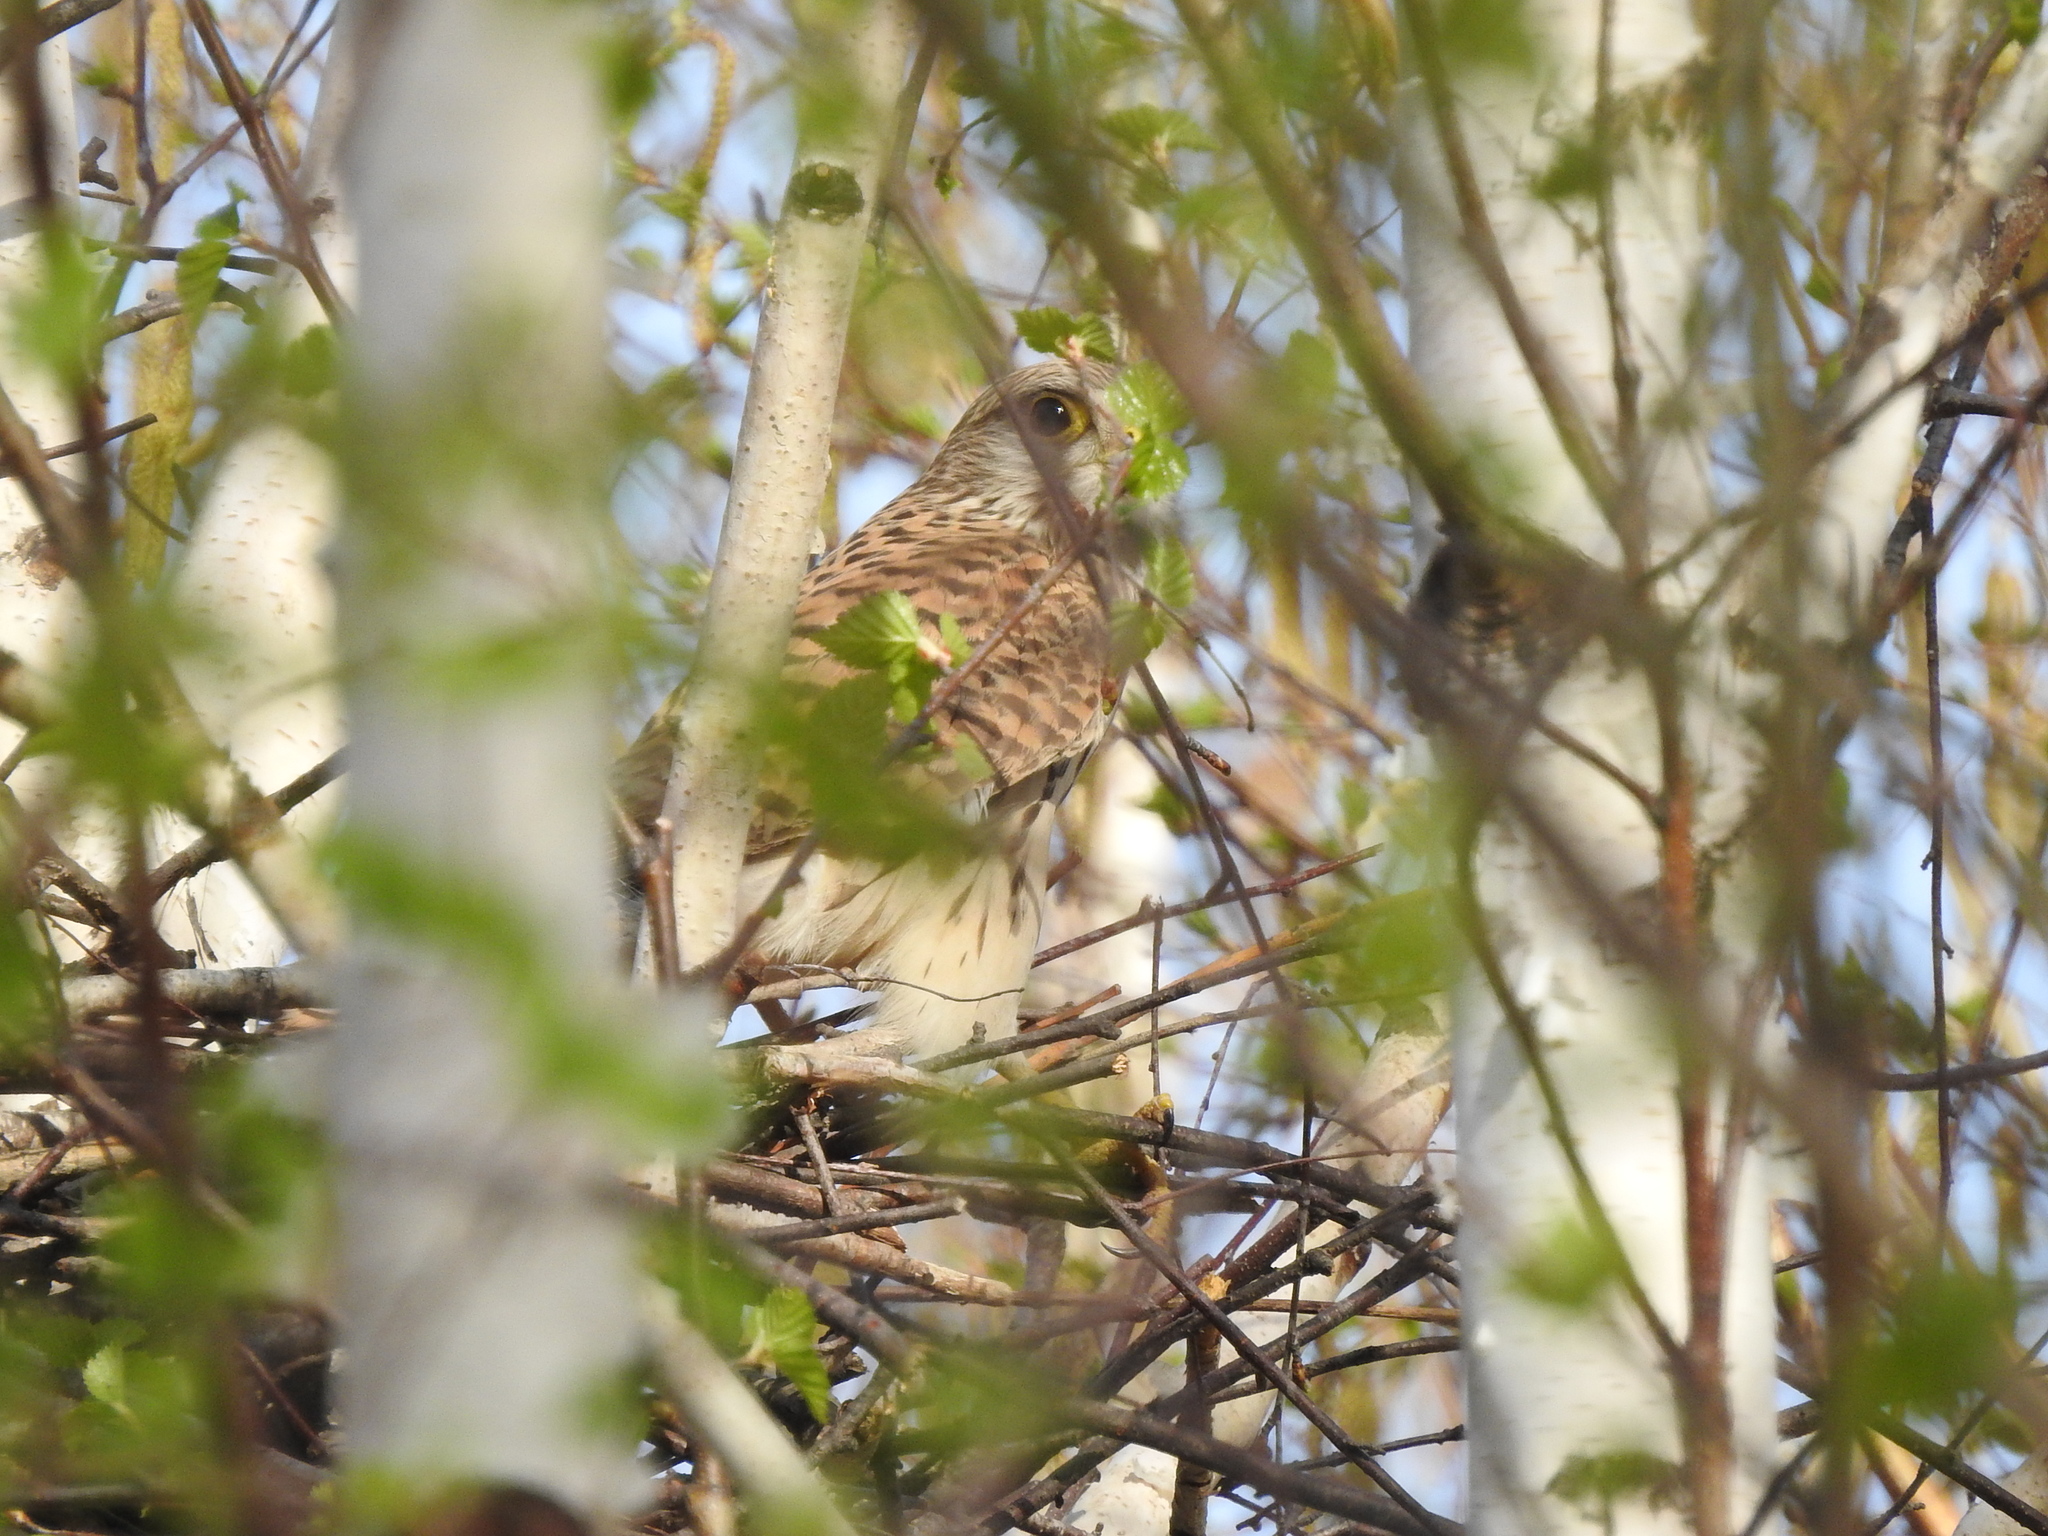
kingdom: Animalia
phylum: Chordata
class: Aves
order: Falconiformes
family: Falconidae
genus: Falco
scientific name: Falco tinnunculus
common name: Common kestrel
